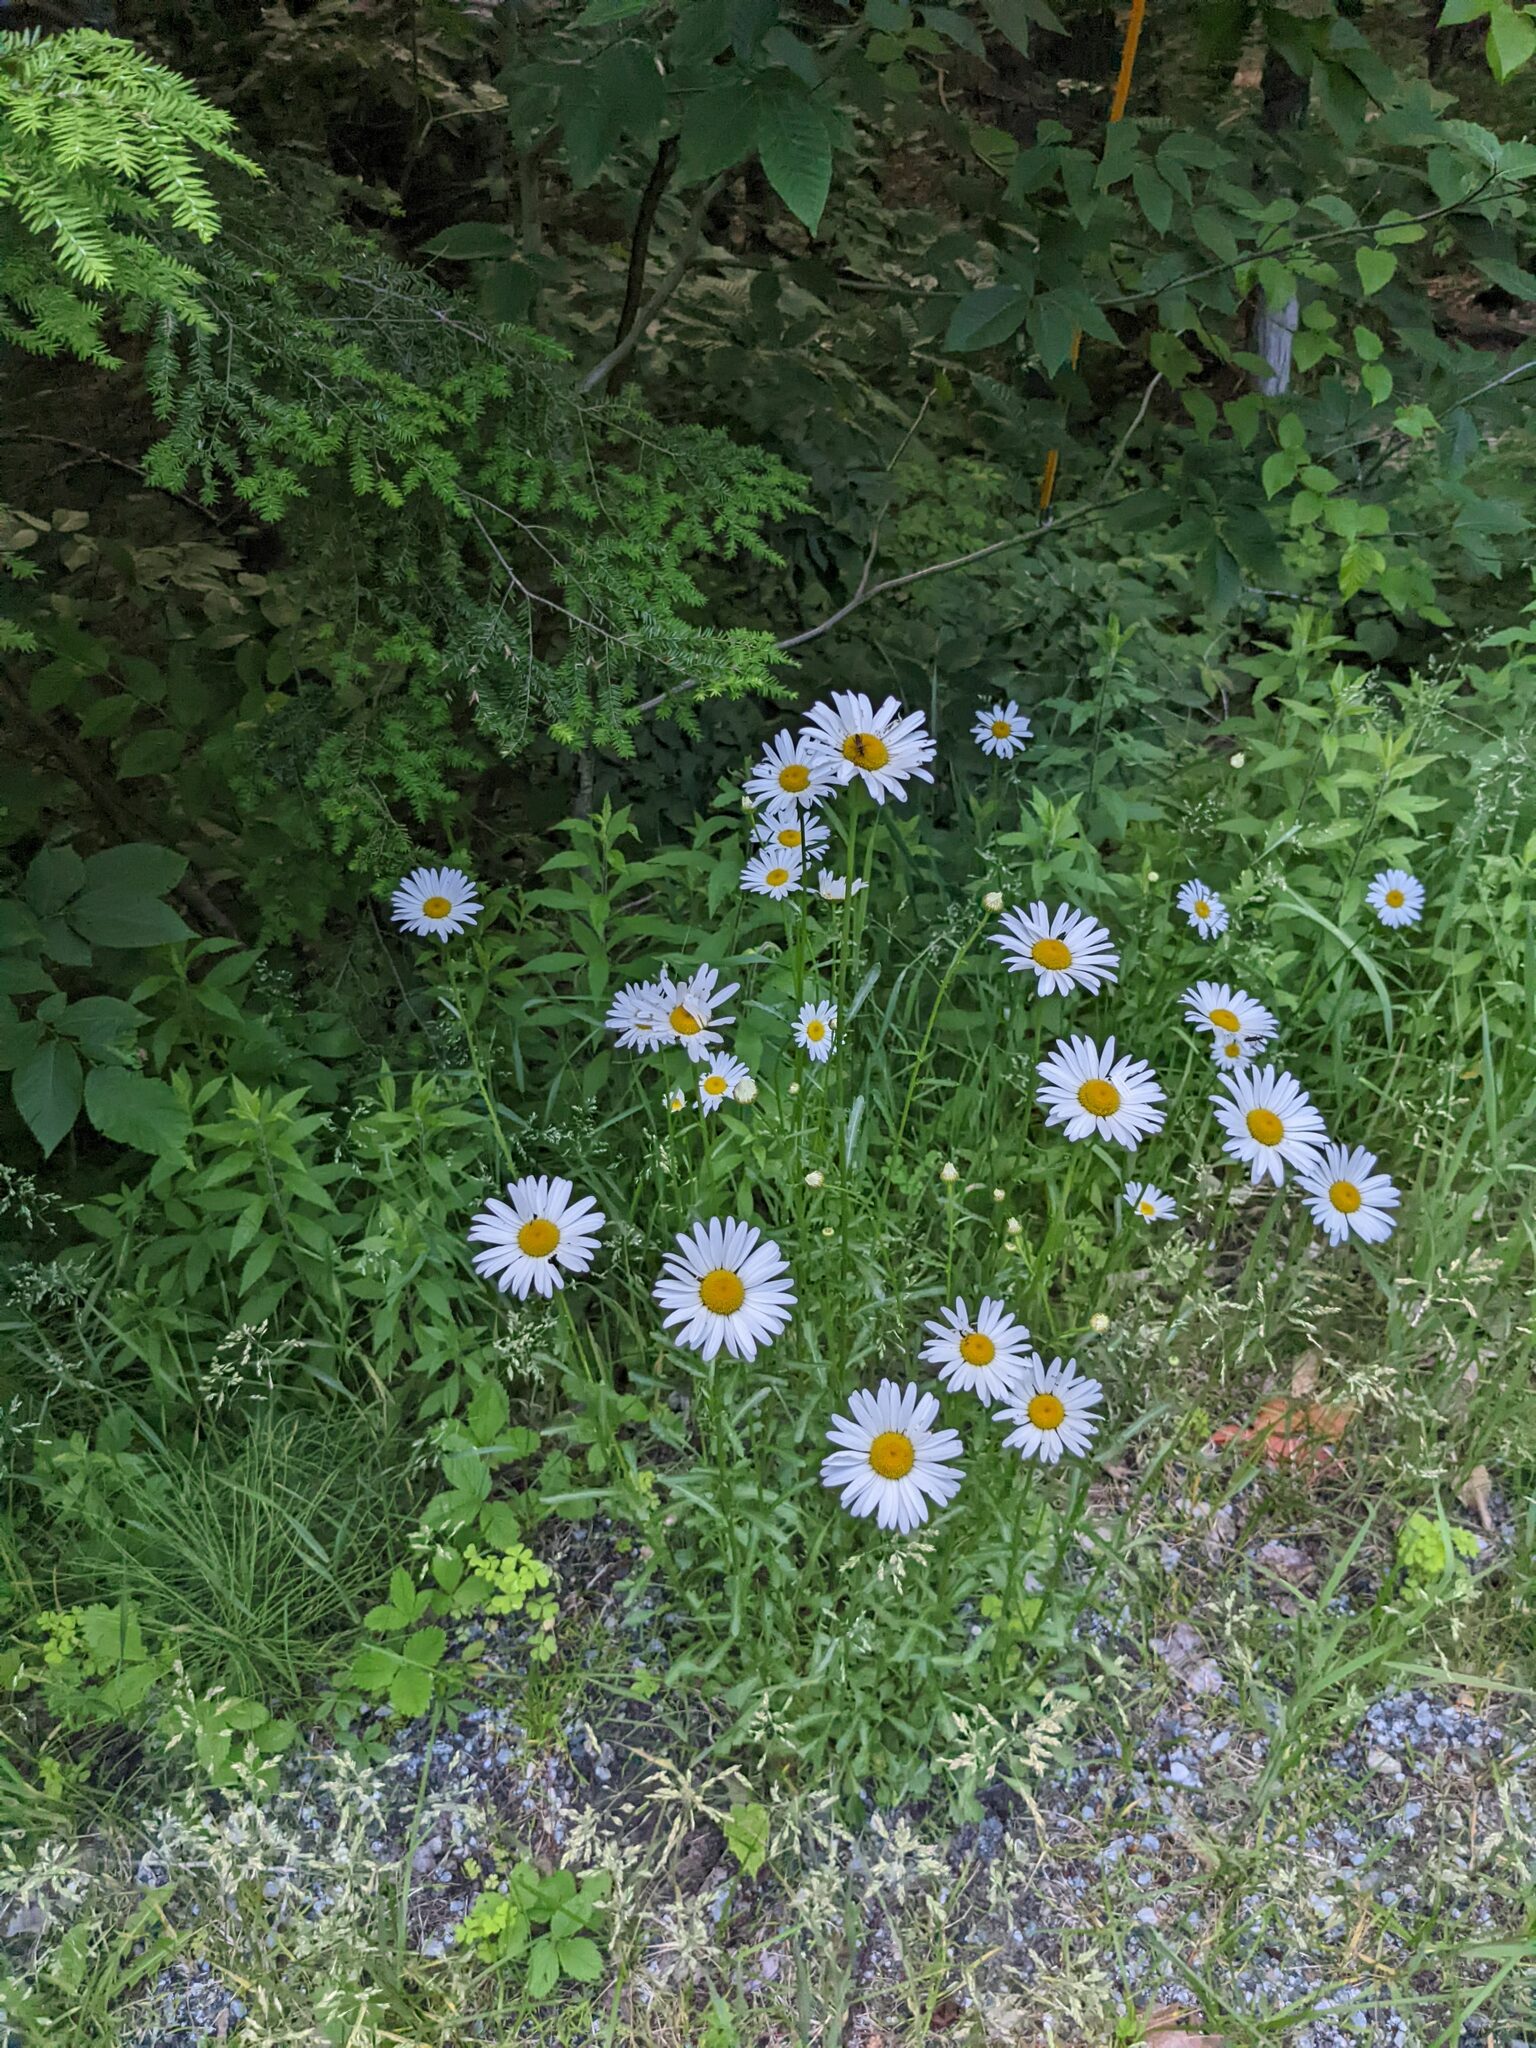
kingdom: Plantae
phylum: Tracheophyta
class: Magnoliopsida
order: Asterales
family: Asteraceae
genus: Leucanthemum
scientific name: Leucanthemum vulgare
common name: Oxeye daisy
